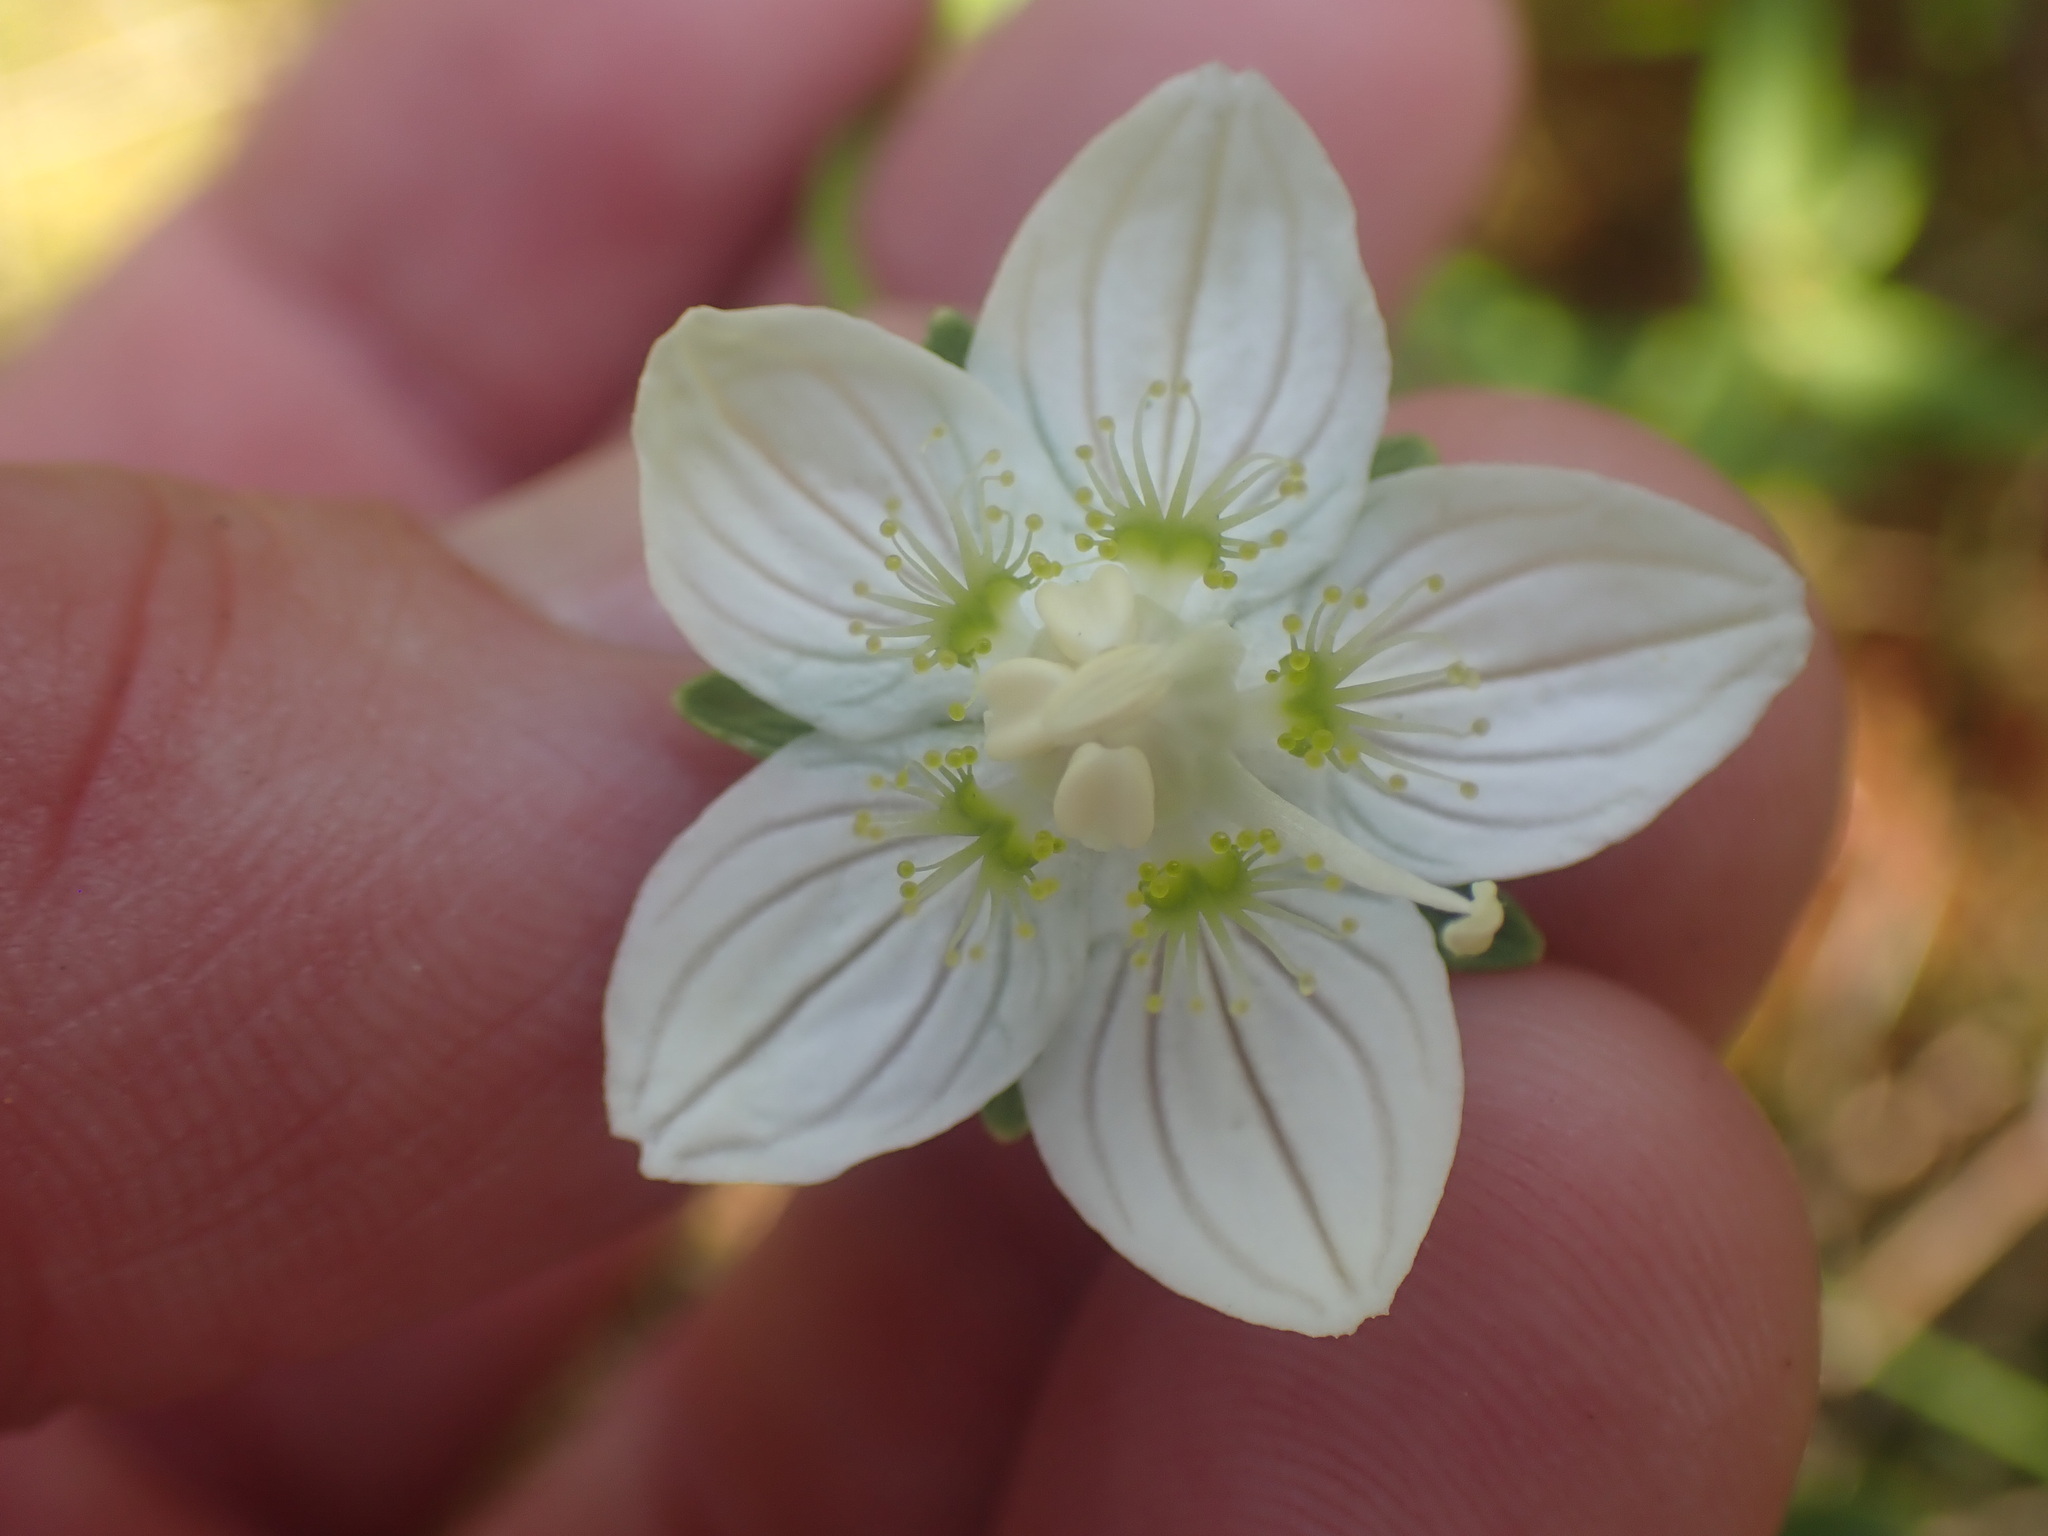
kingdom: Plantae
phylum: Tracheophyta
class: Magnoliopsida
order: Celastrales
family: Parnassiaceae
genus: Parnassia
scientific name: Parnassia palustris
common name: Grass-of-parnassus
